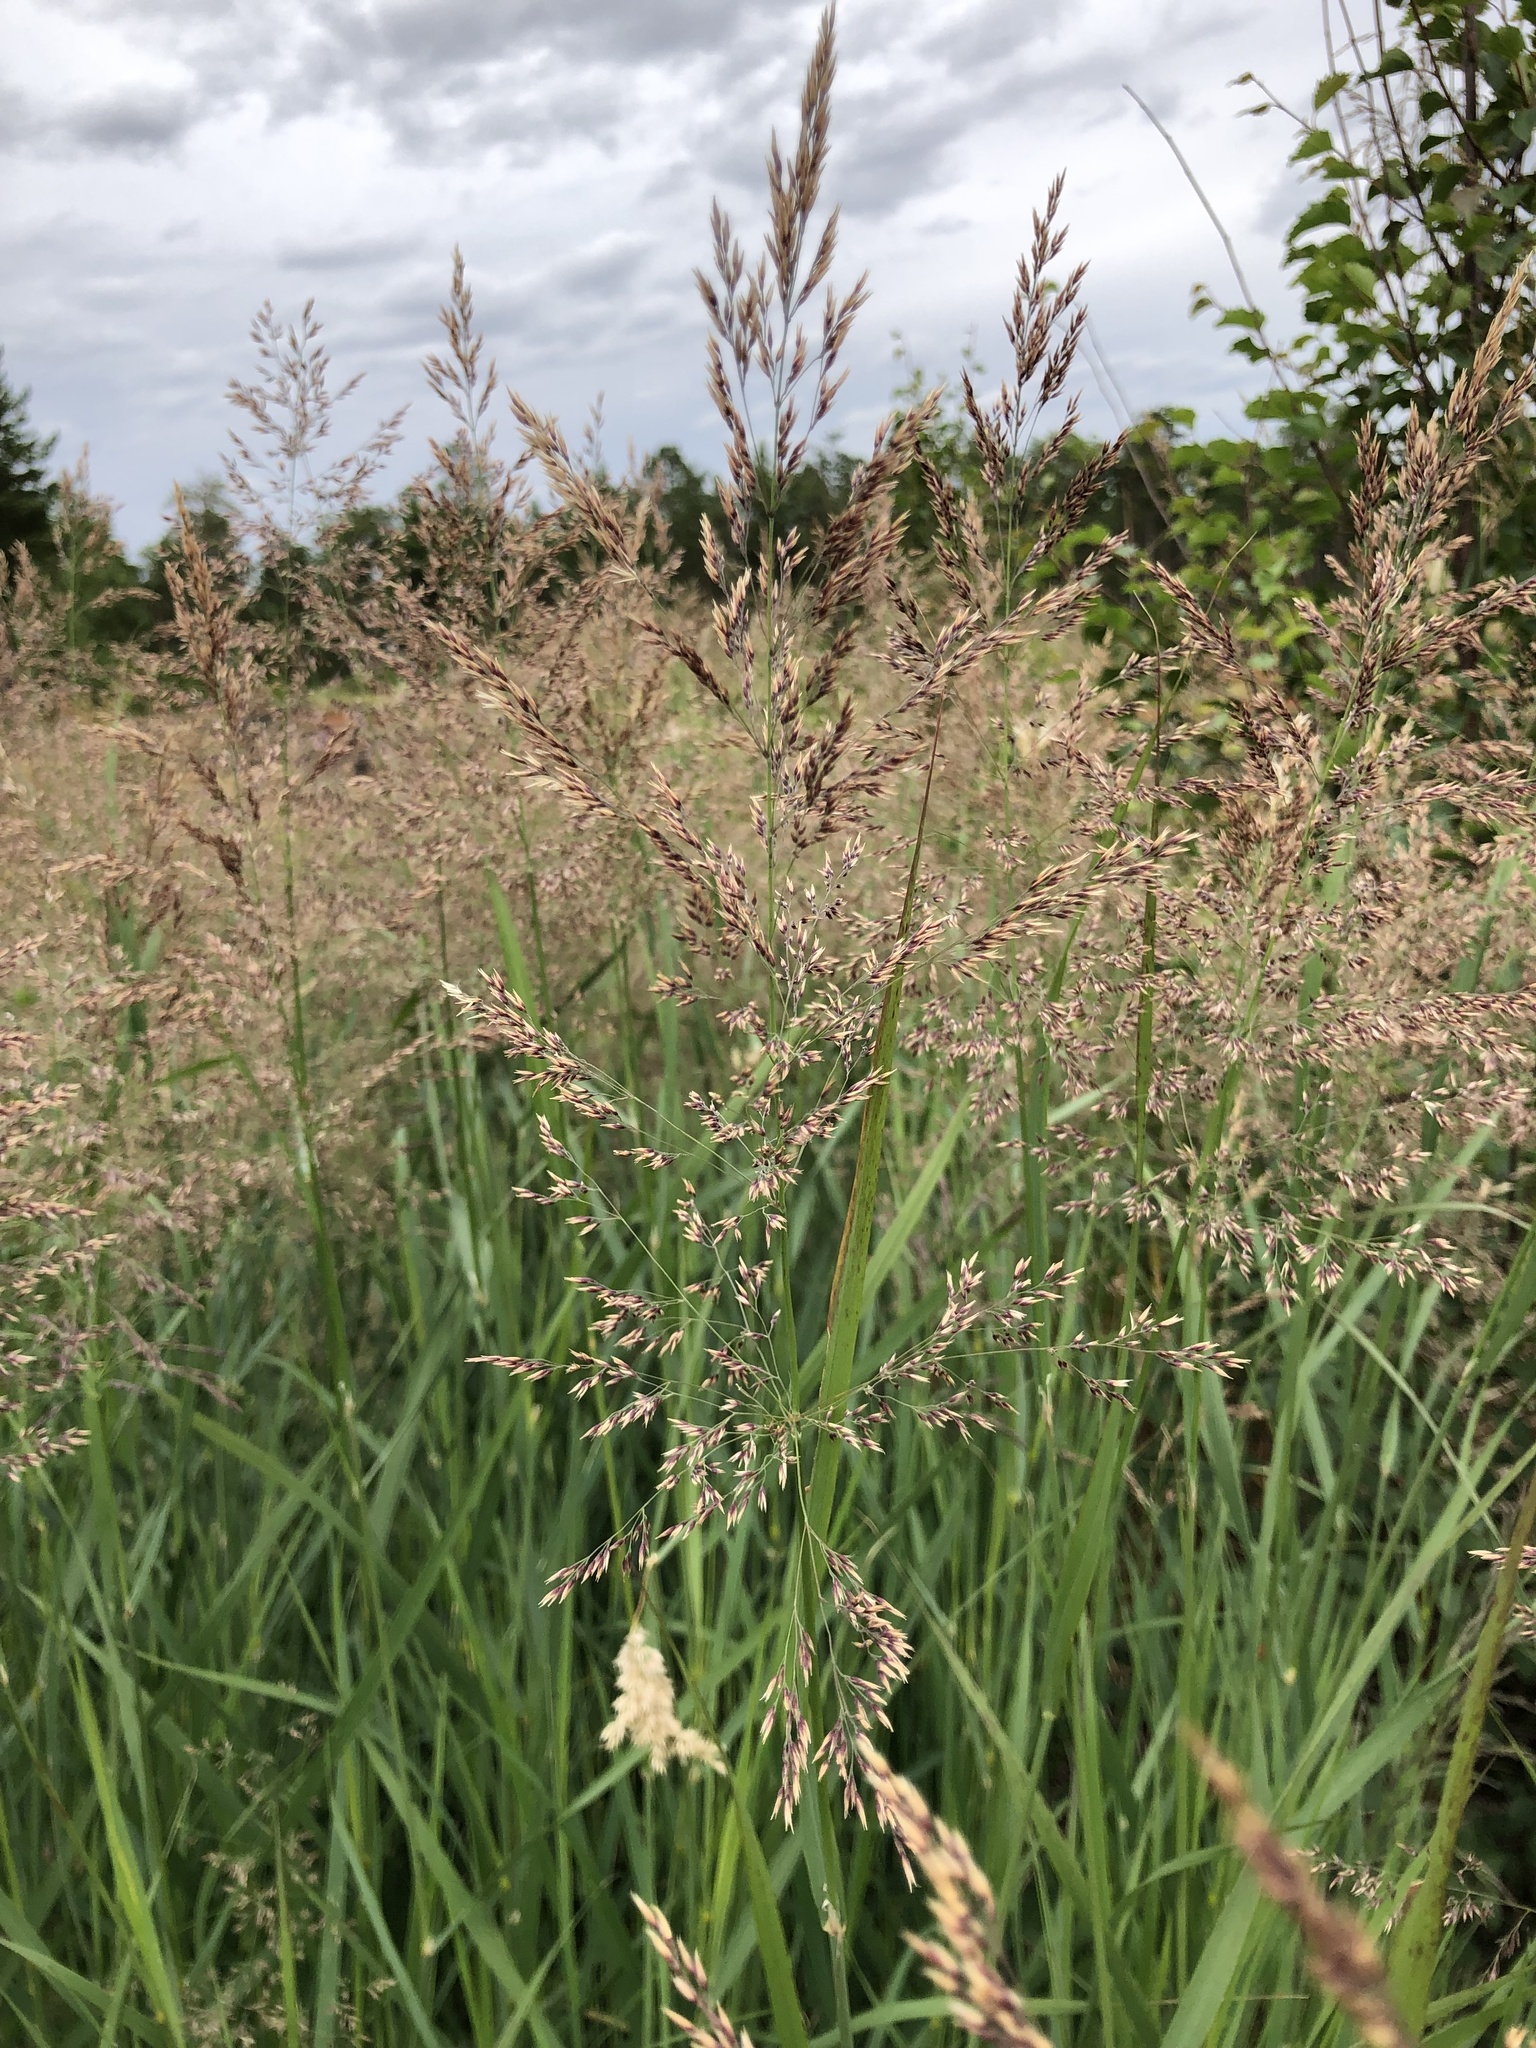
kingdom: Plantae
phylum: Tracheophyta
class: Liliopsida
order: Poales
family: Poaceae
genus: Calamagrostis
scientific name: Calamagrostis purpurea
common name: Scandinavian small-reed
